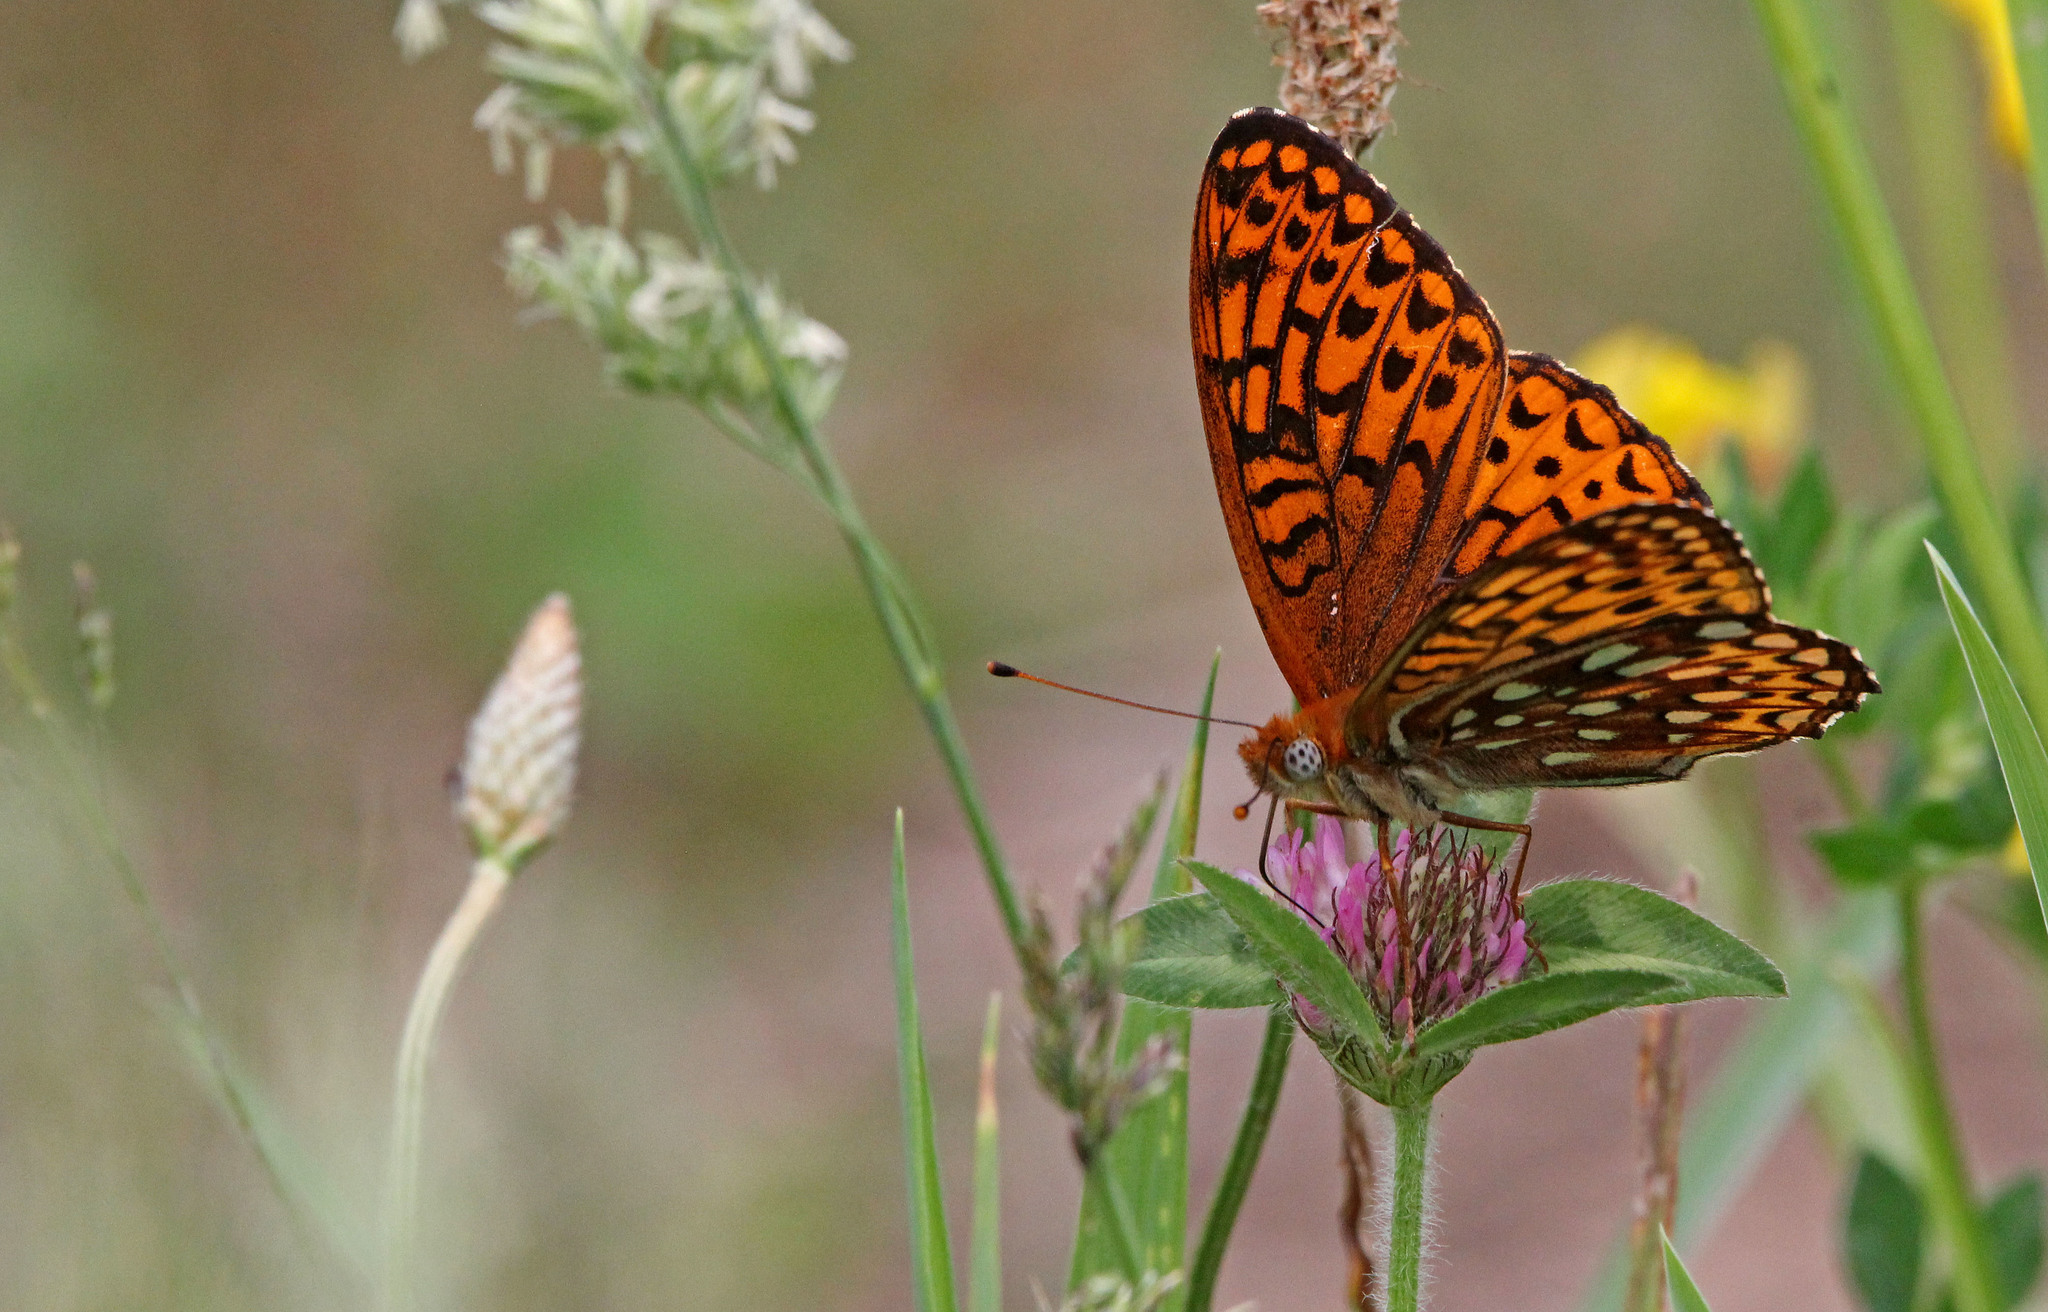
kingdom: Animalia
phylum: Arthropoda
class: Insecta
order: Lepidoptera
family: Nymphalidae
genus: Speyeria
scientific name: Speyeria atlantis
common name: Atlantis fritillary
